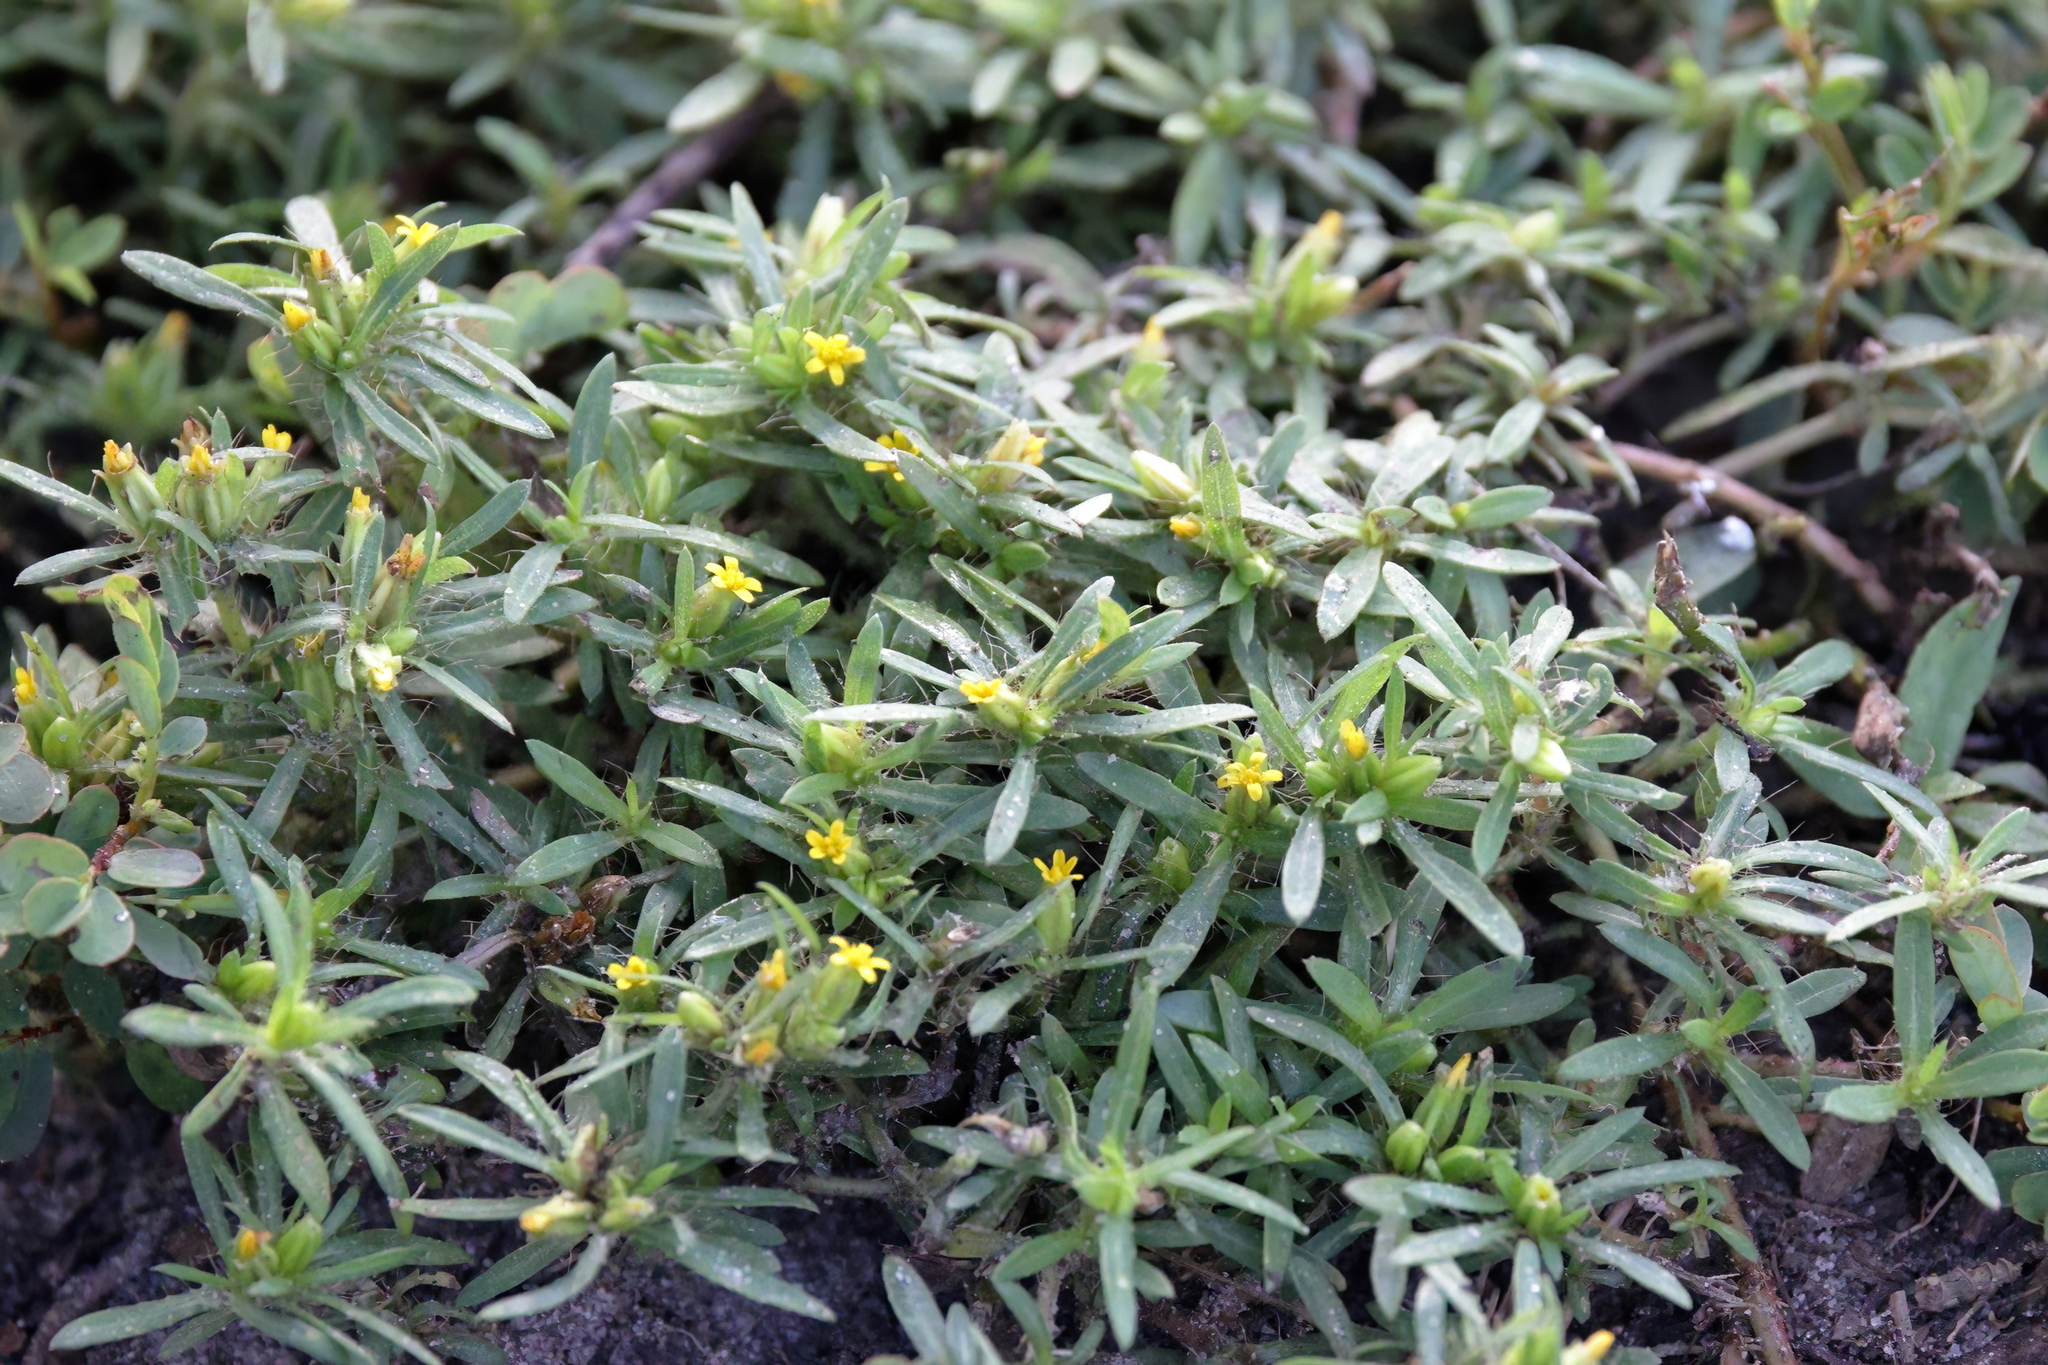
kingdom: Plantae
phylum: Tracheophyta
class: Magnoliopsida
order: Asterales
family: Asteraceae
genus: Pectis
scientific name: Pectis prostrata
